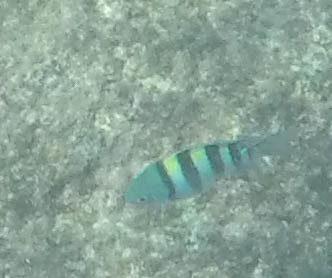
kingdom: Animalia
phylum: Chordata
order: Perciformes
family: Pomacentridae
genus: Abudefduf
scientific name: Abudefduf vaigiensis
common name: Indo-pacific sergeant
